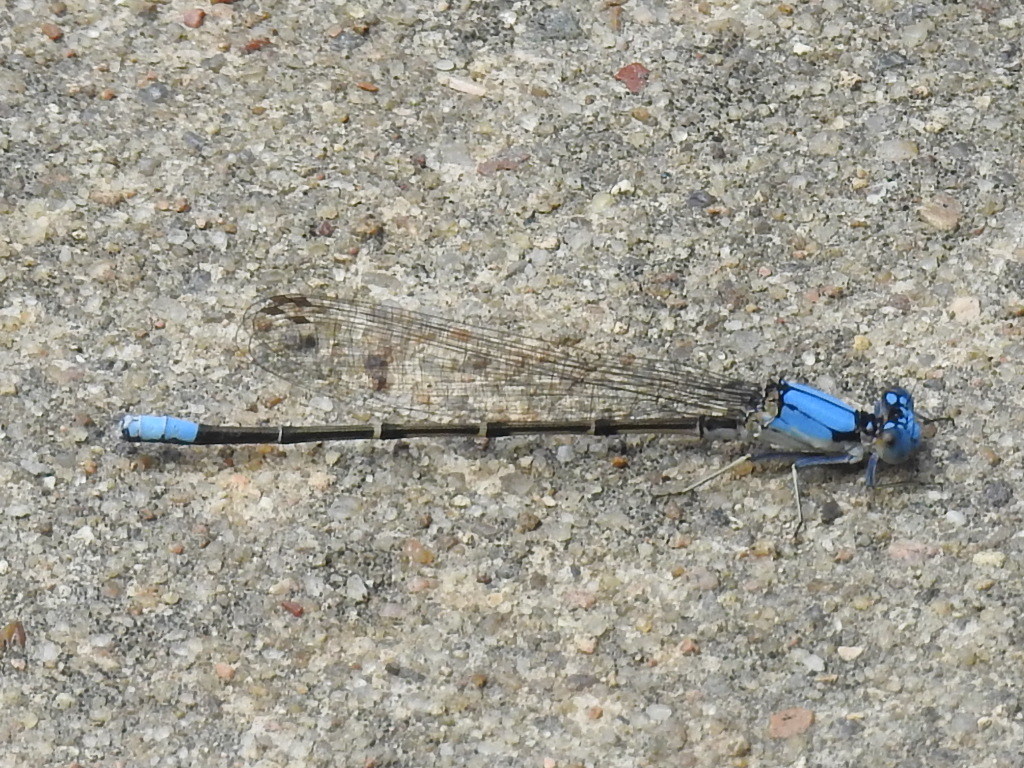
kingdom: Animalia
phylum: Arthropoda
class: Insecta
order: Odonata
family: Coenagrionidae
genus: Argia
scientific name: Argia apicalis
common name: Blue-fronted dancer
